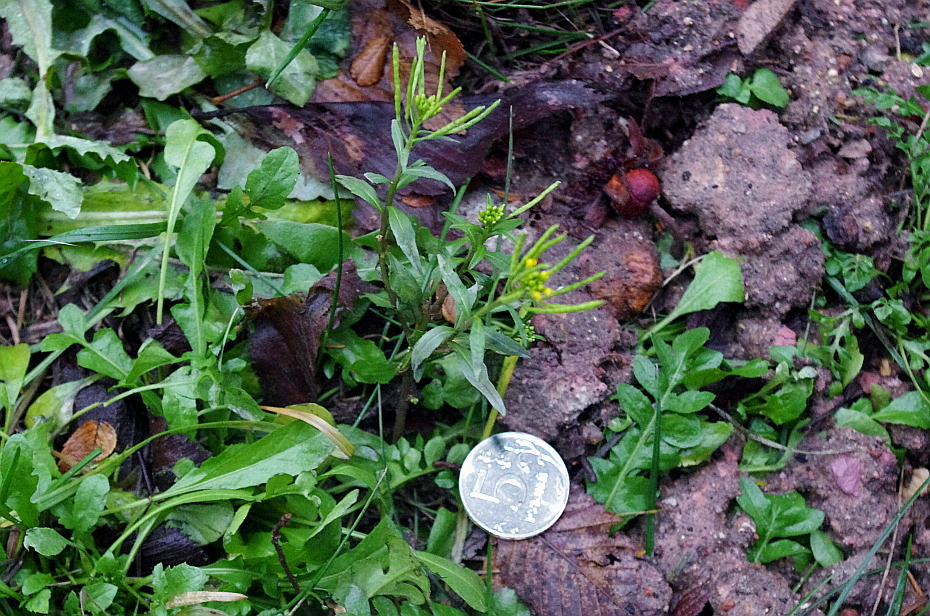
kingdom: Plantae
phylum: Tracheophyta
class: Magnoliopsida
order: Brassicales
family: Brassicaceae
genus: Erysimum
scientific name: Erysimum cheiranthoides
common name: Treacle mustard
